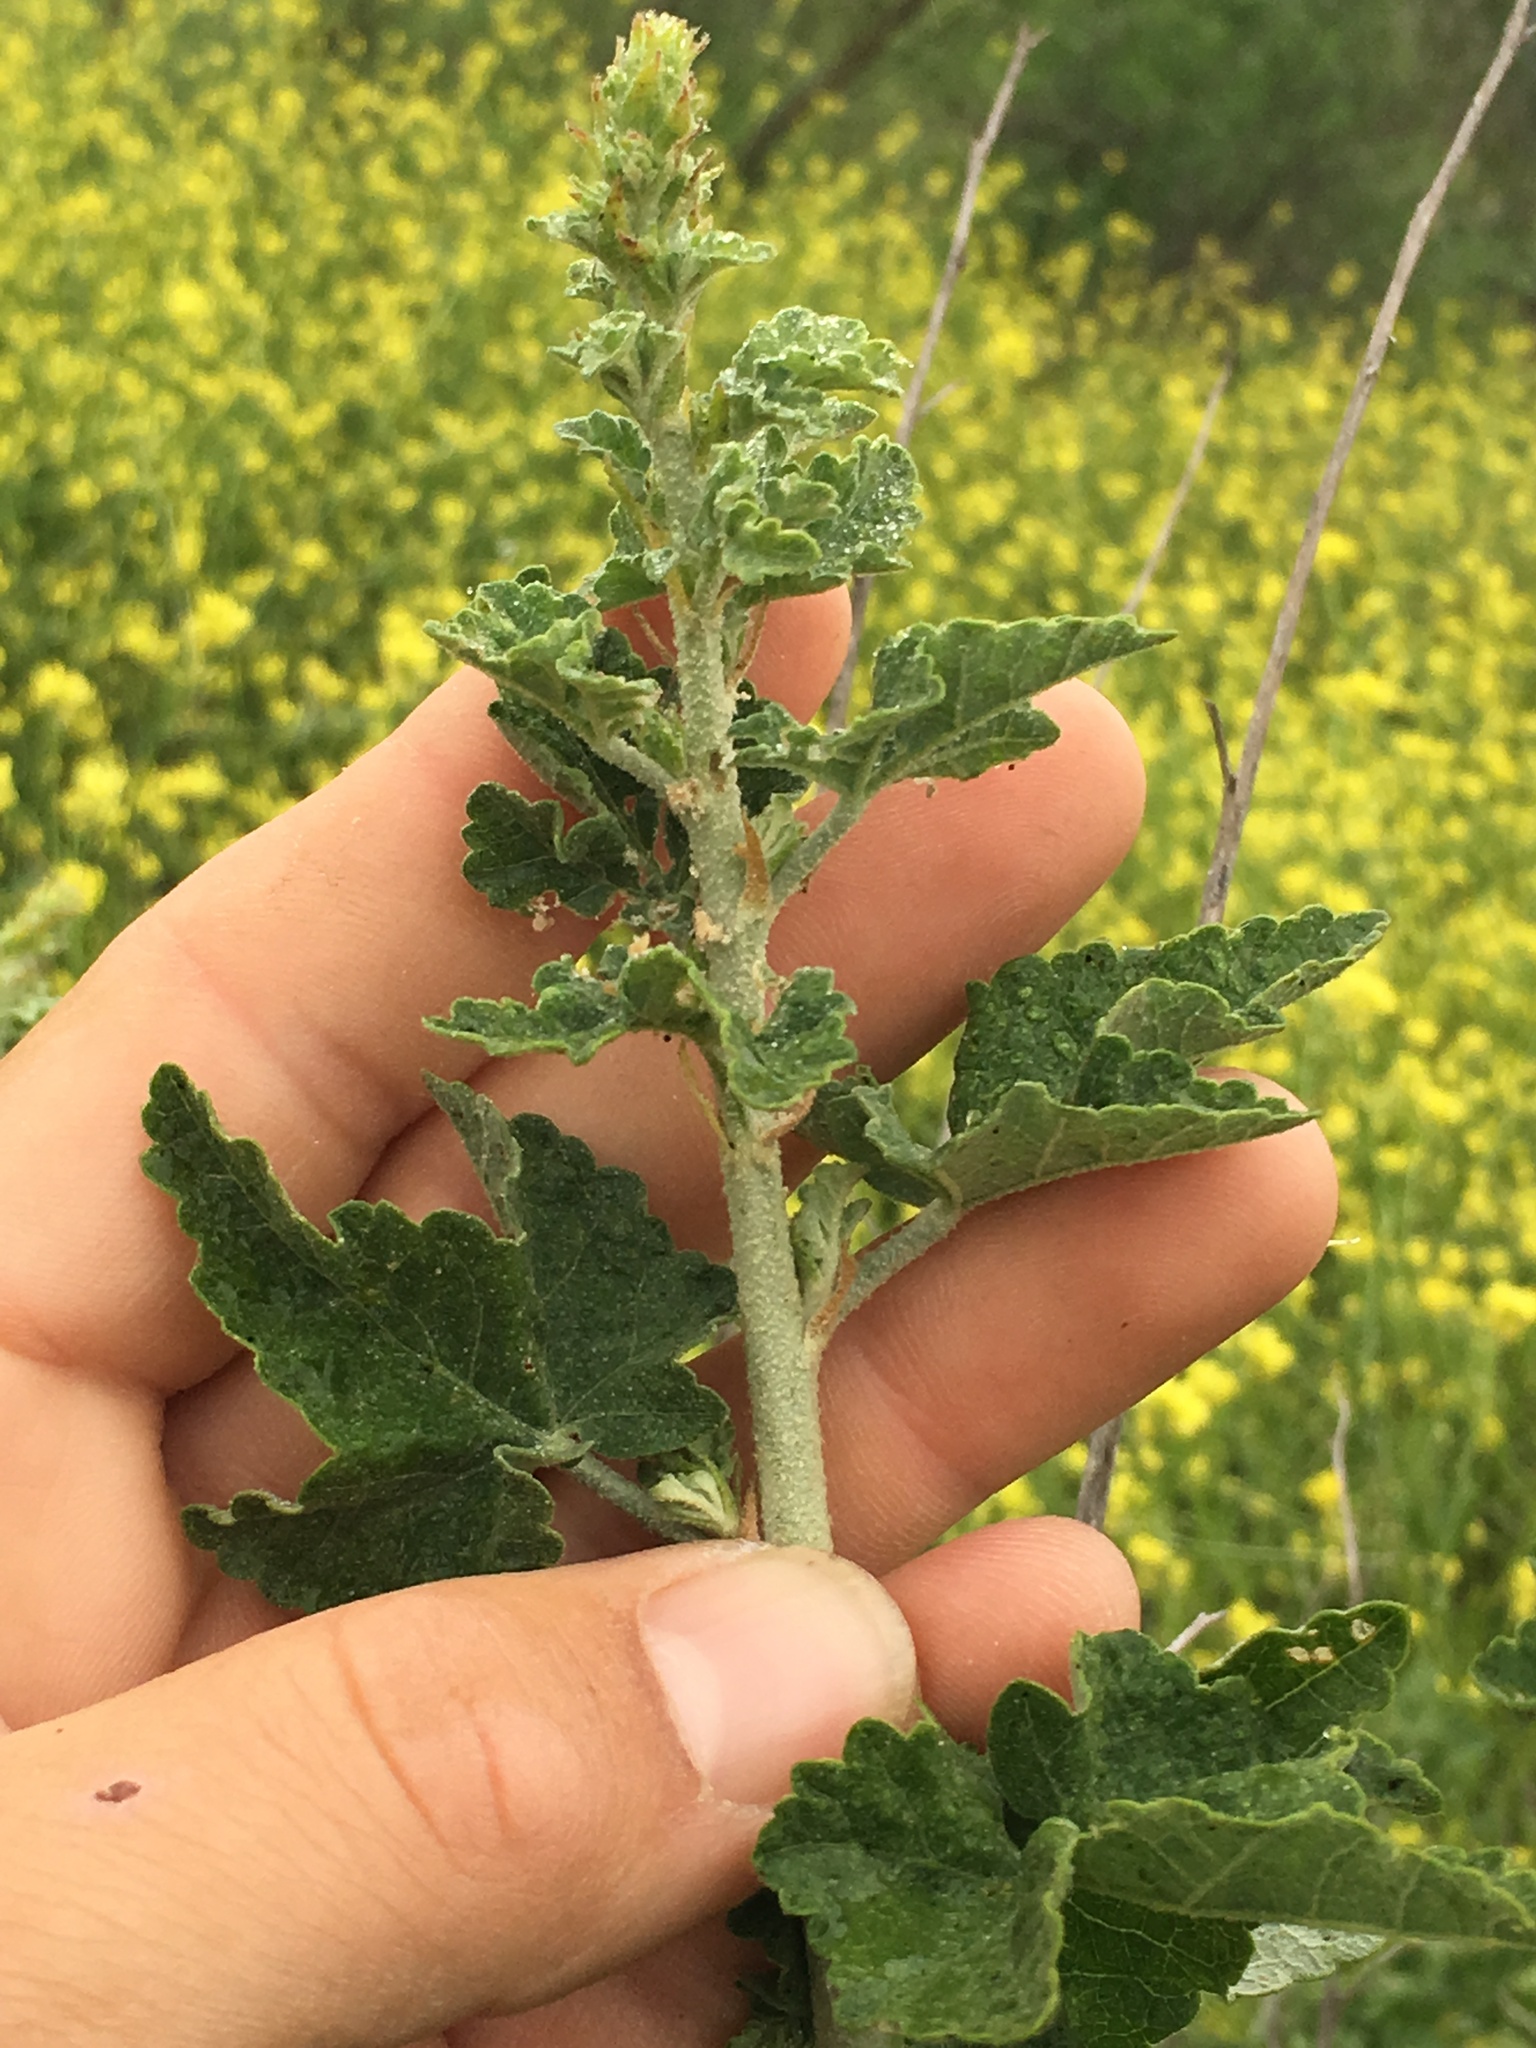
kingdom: Plantae
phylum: Tracheophyta
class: Magnoliopsida
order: Malvales
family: Malvaceae
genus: Malacothamnus
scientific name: Malacothamnus fasciculatus
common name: Sant cruz island bush-mallow
